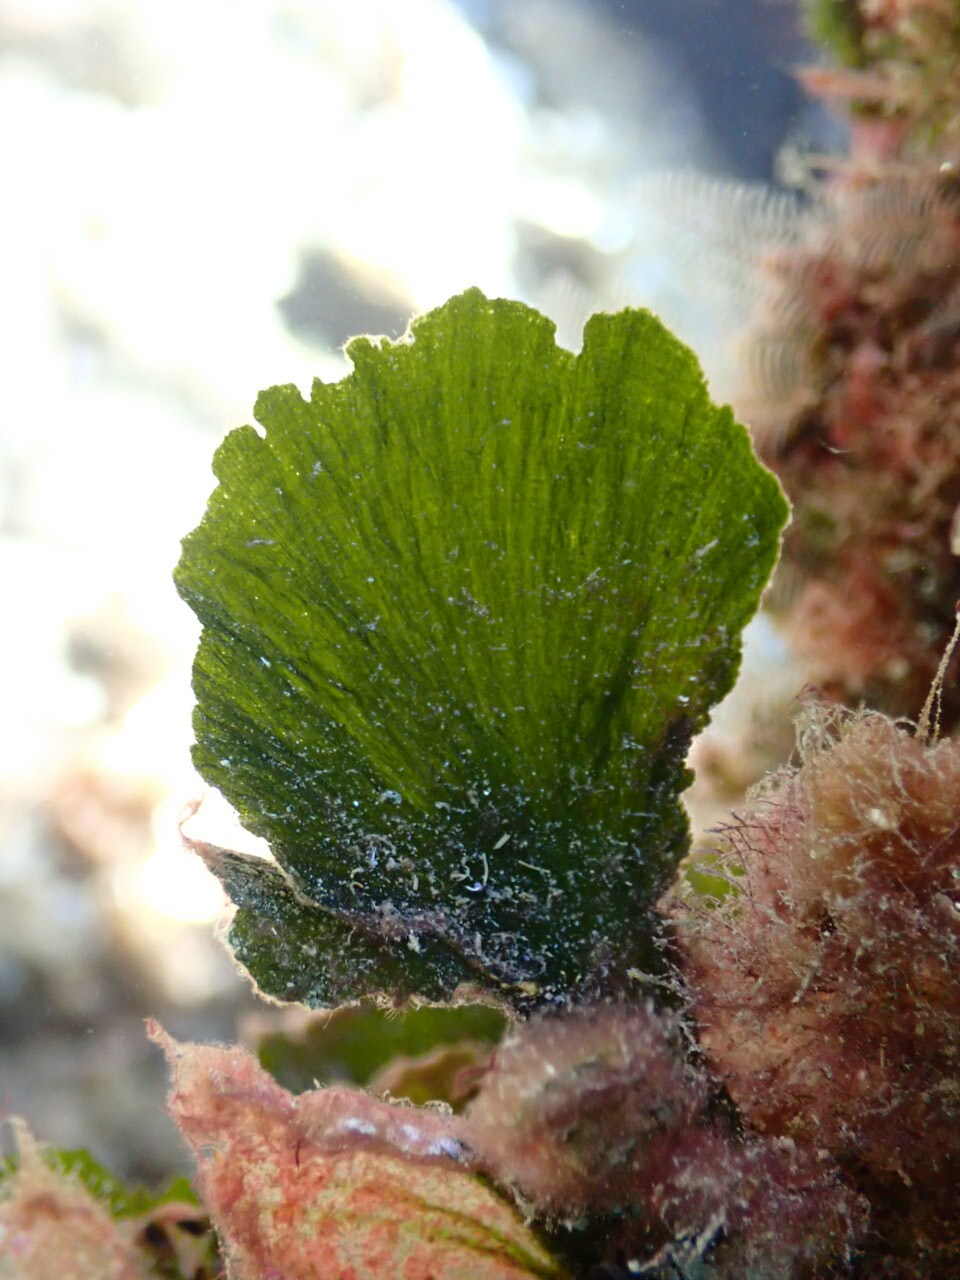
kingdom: Plantae
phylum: Chlorophyta
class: Ulvophyceae
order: Bryopsidales
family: Codiaceae
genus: Codium
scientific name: Codium Flabellia petiolata
